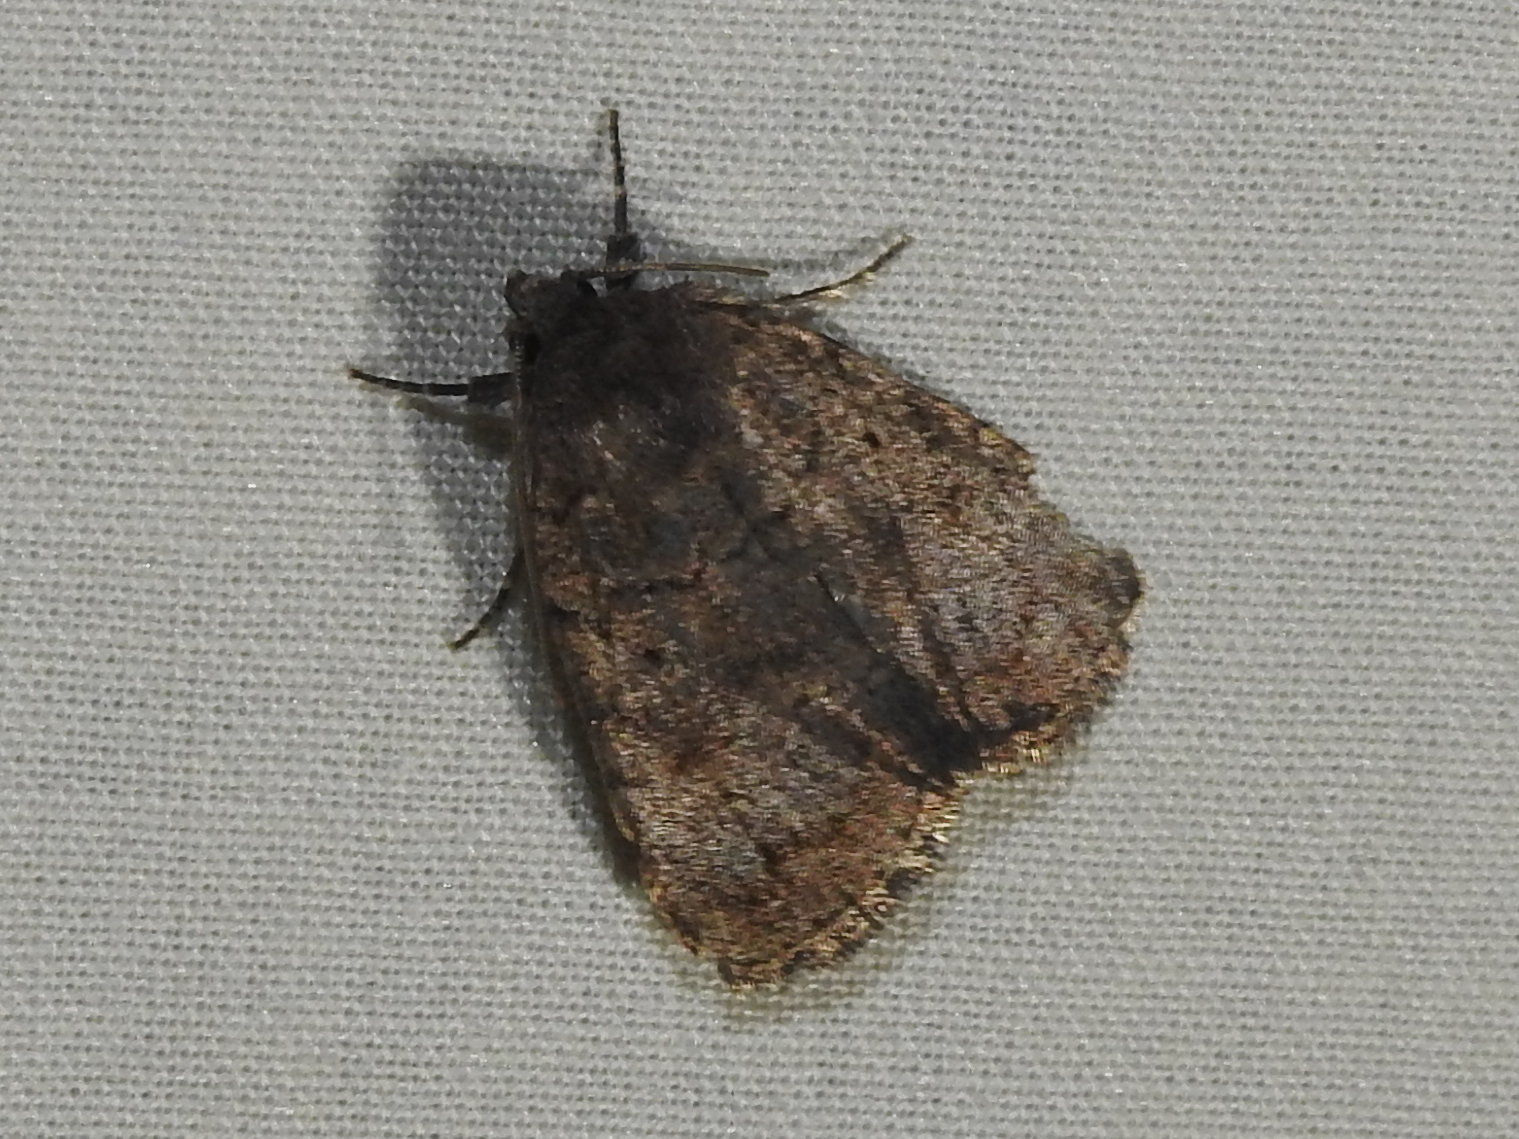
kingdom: Animalia
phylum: Arthropoda
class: Insecta
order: Lepidoptera
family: Noctuidae
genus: Athetis
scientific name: Athetis tarda
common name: Slowpoke moth
